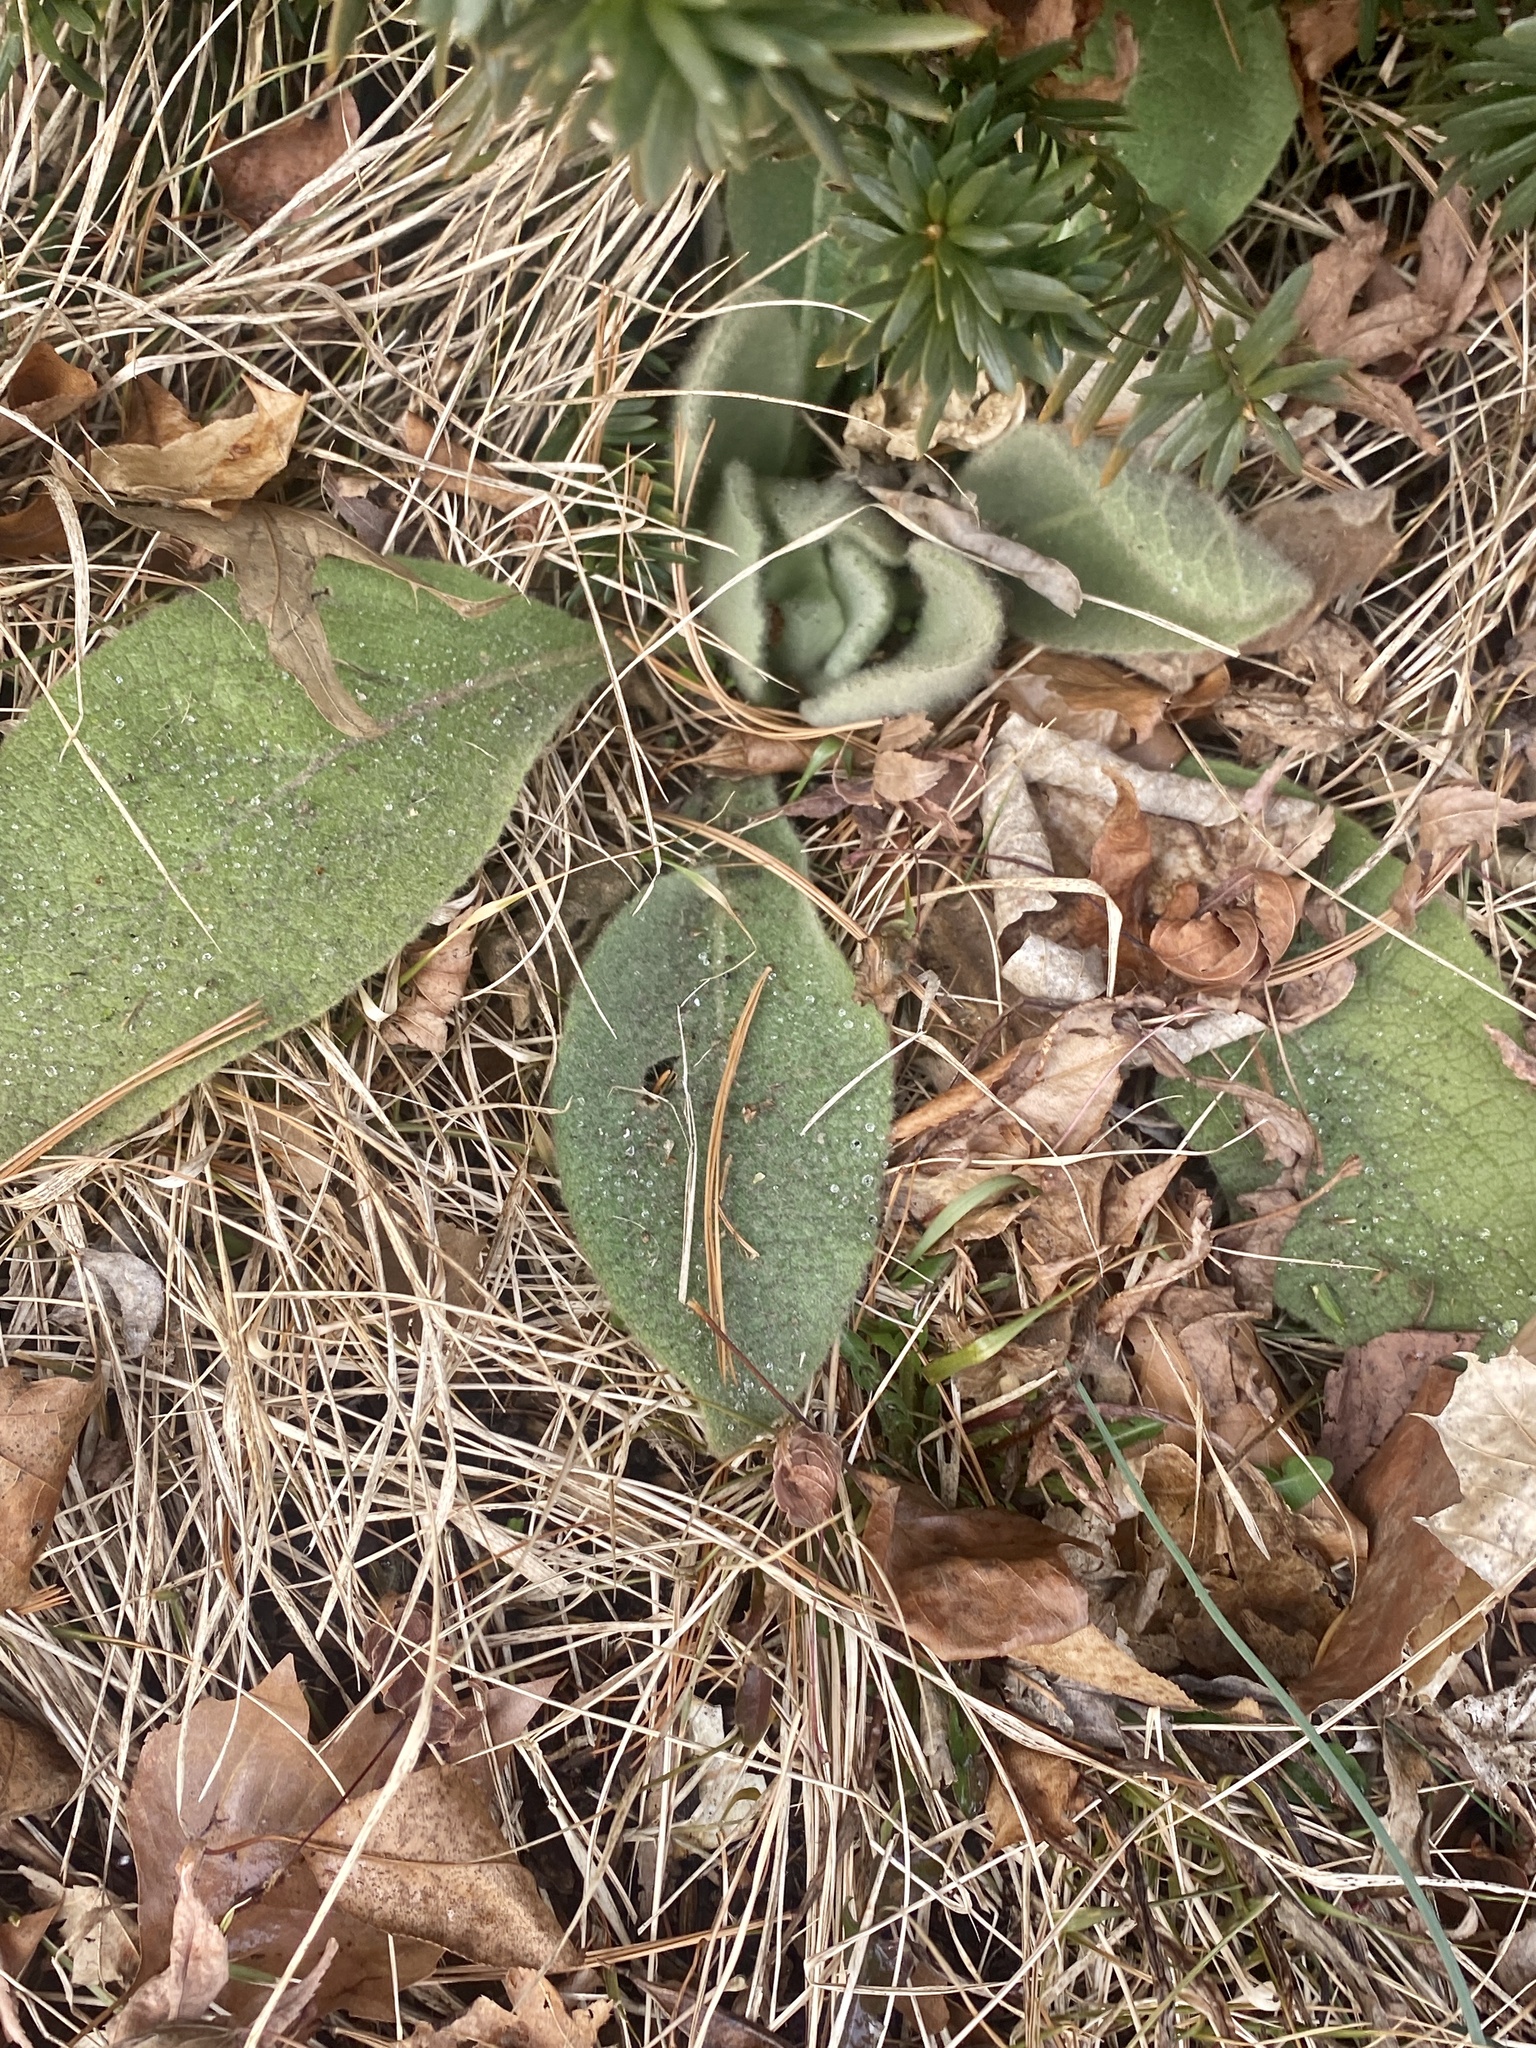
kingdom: Plantae
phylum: Tracheophyta
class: Magnoliopsida
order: Lamiales
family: Scrophulariaceae
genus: Verbascum
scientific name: Verbascum thapsus
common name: Common mullein
